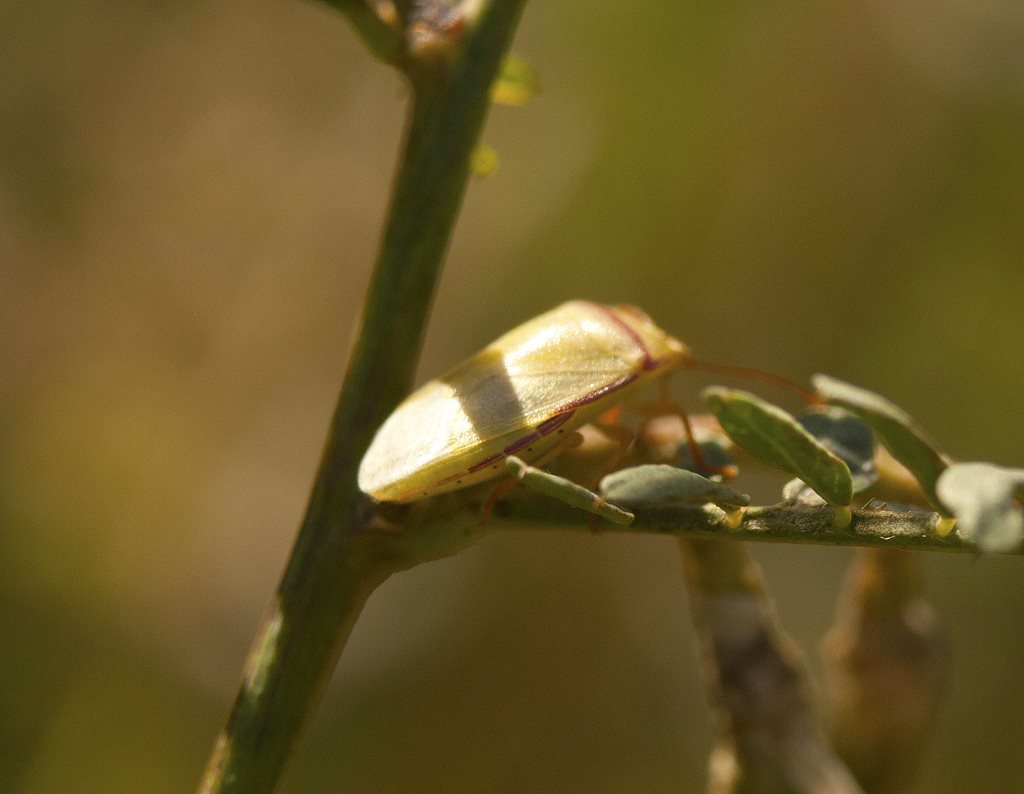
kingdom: Animalia
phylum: Arthropoda
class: Insecta
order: Hemiptera
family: Pentatomidae
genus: Piezodorus
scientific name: Piezodorus oceanicus
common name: Stink bug
